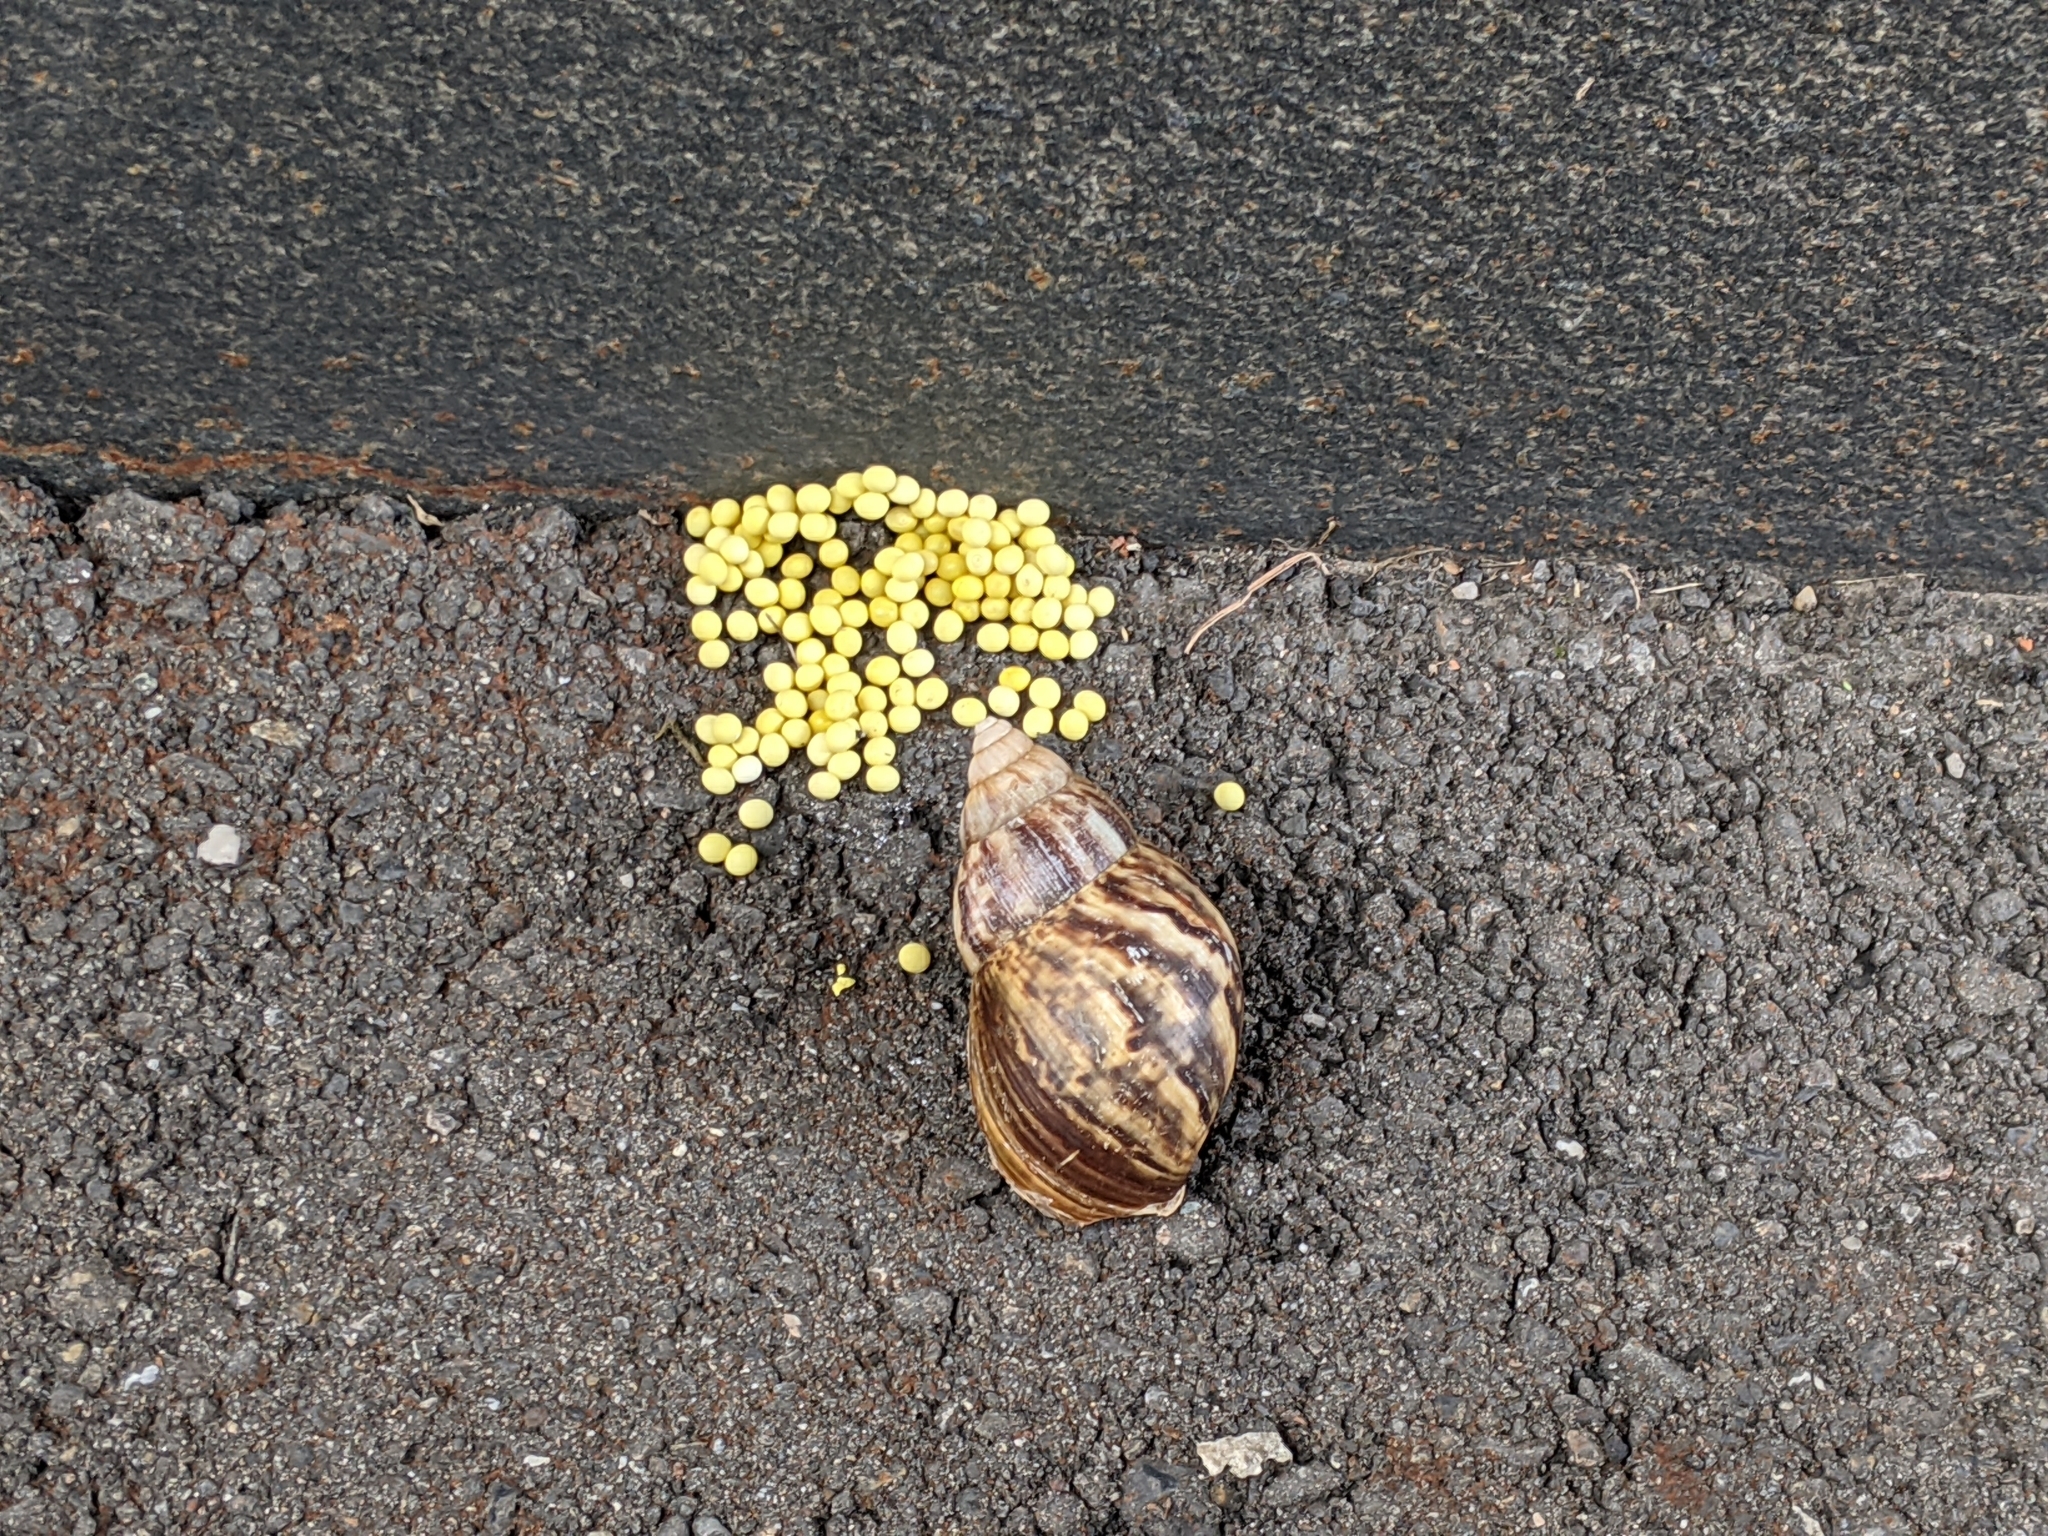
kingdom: Animalia
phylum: Mollusca
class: Gastropoda
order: Stylommatophora
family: Achatinidae
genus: Lissachatina
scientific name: Lissachatina fulica
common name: Giant african snail
